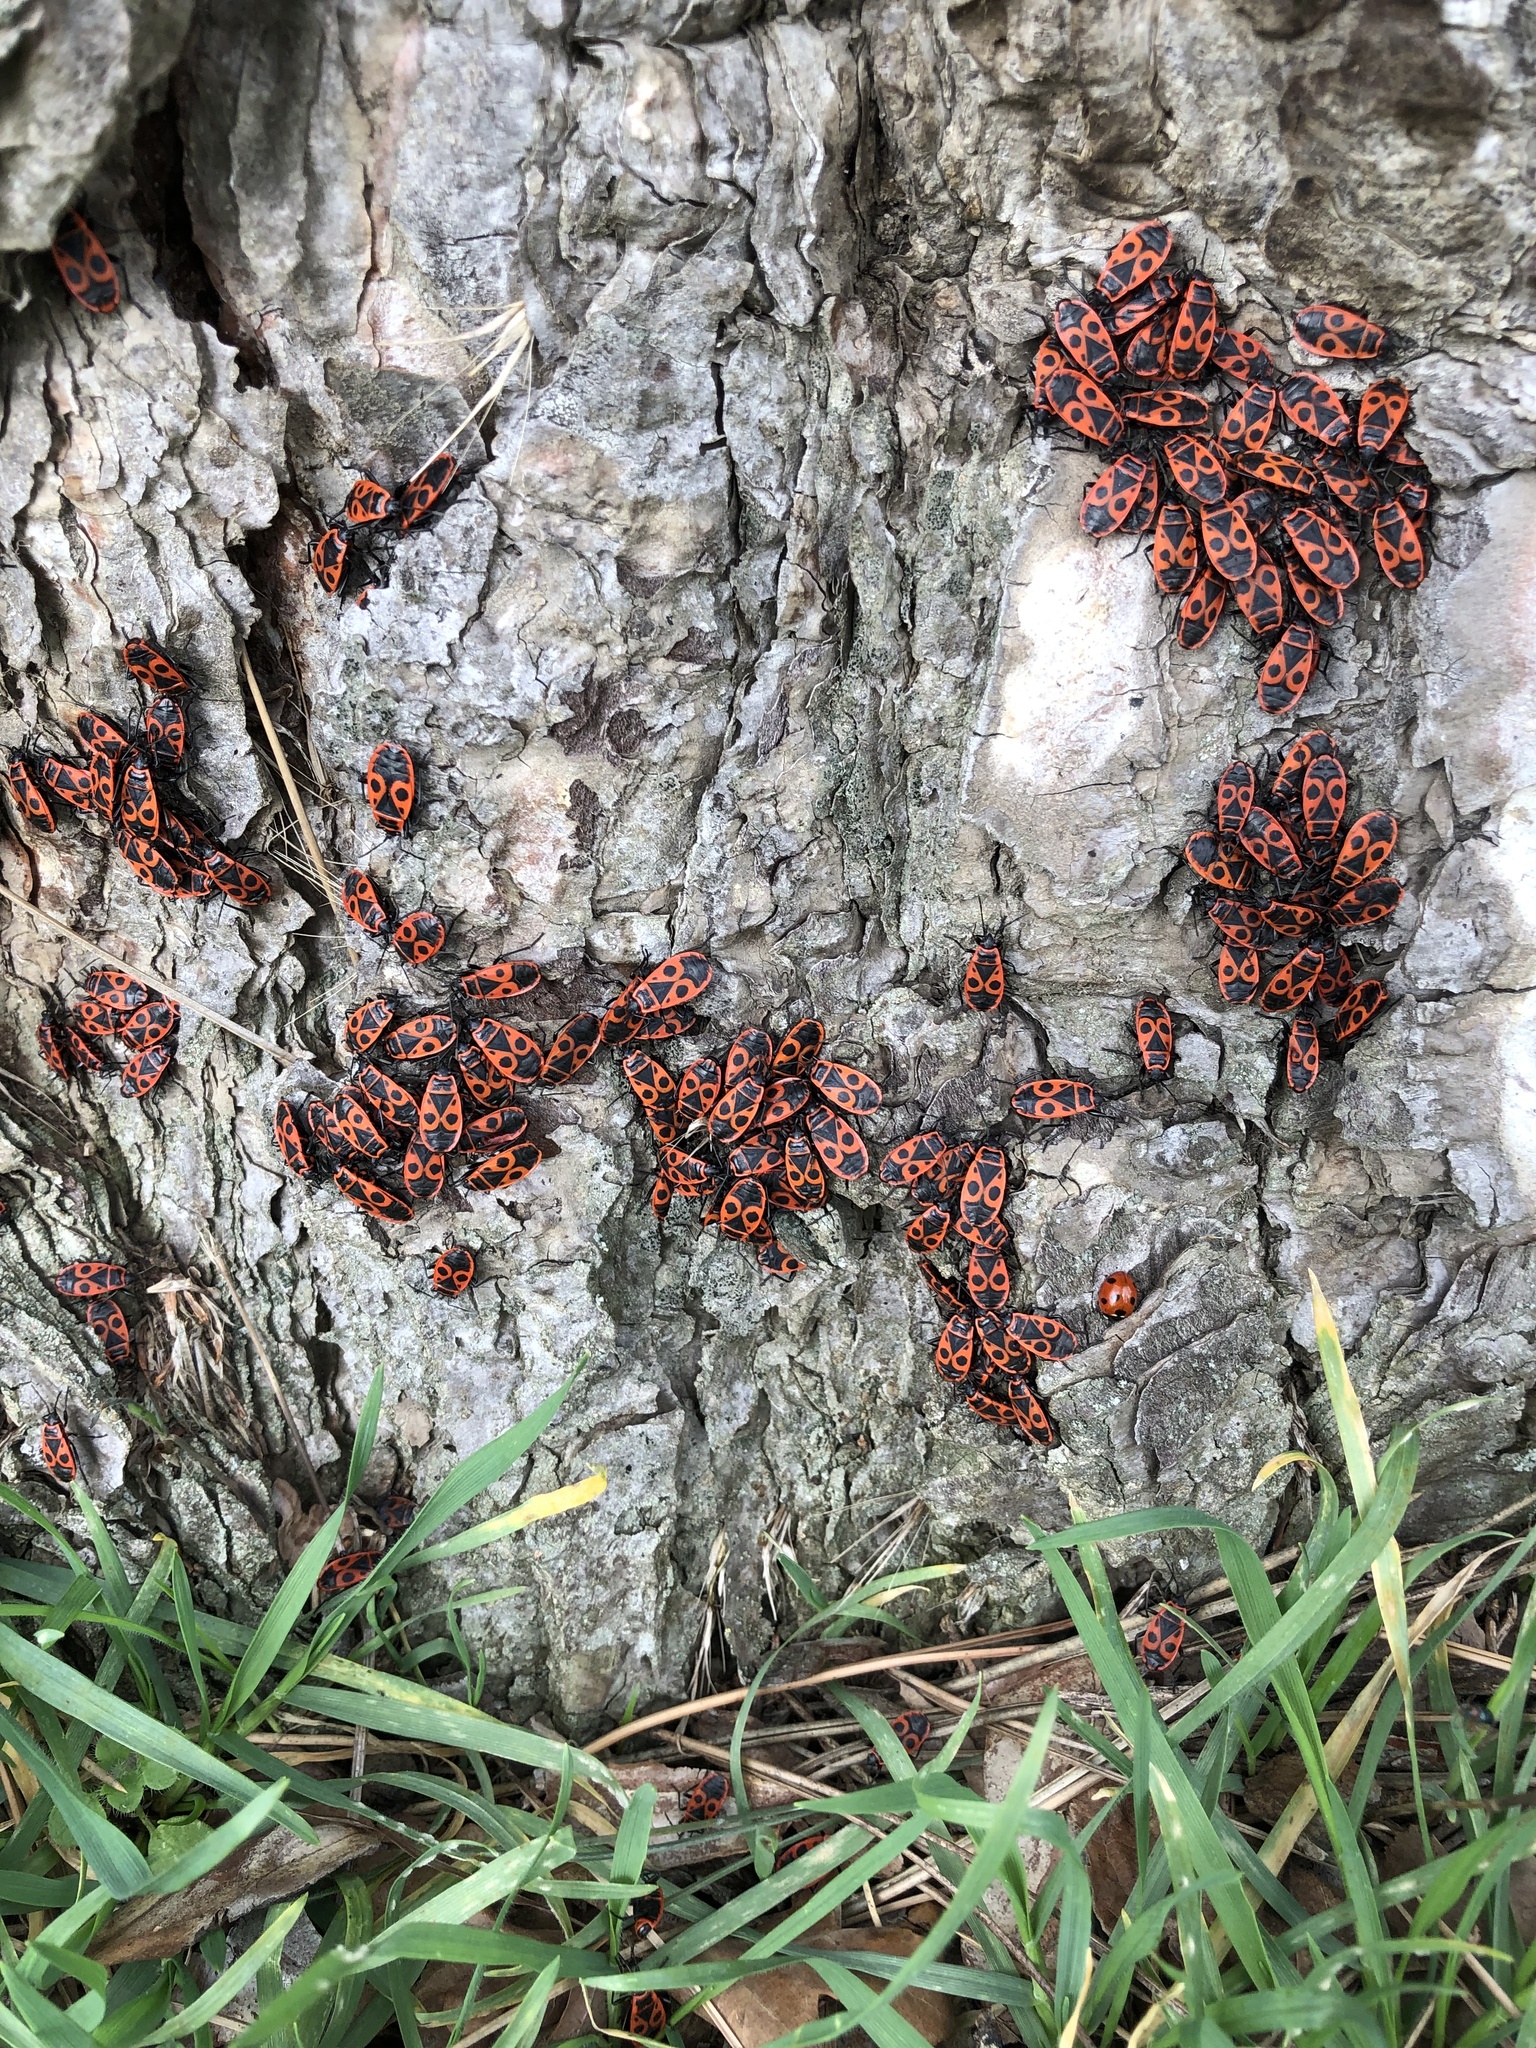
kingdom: Animalia
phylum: Arthropoda
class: Insecta
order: Hemiptera
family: Pyrrhocoridae
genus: Pyrrhocoris
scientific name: Pyrrhocoris apterus
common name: Firebug
